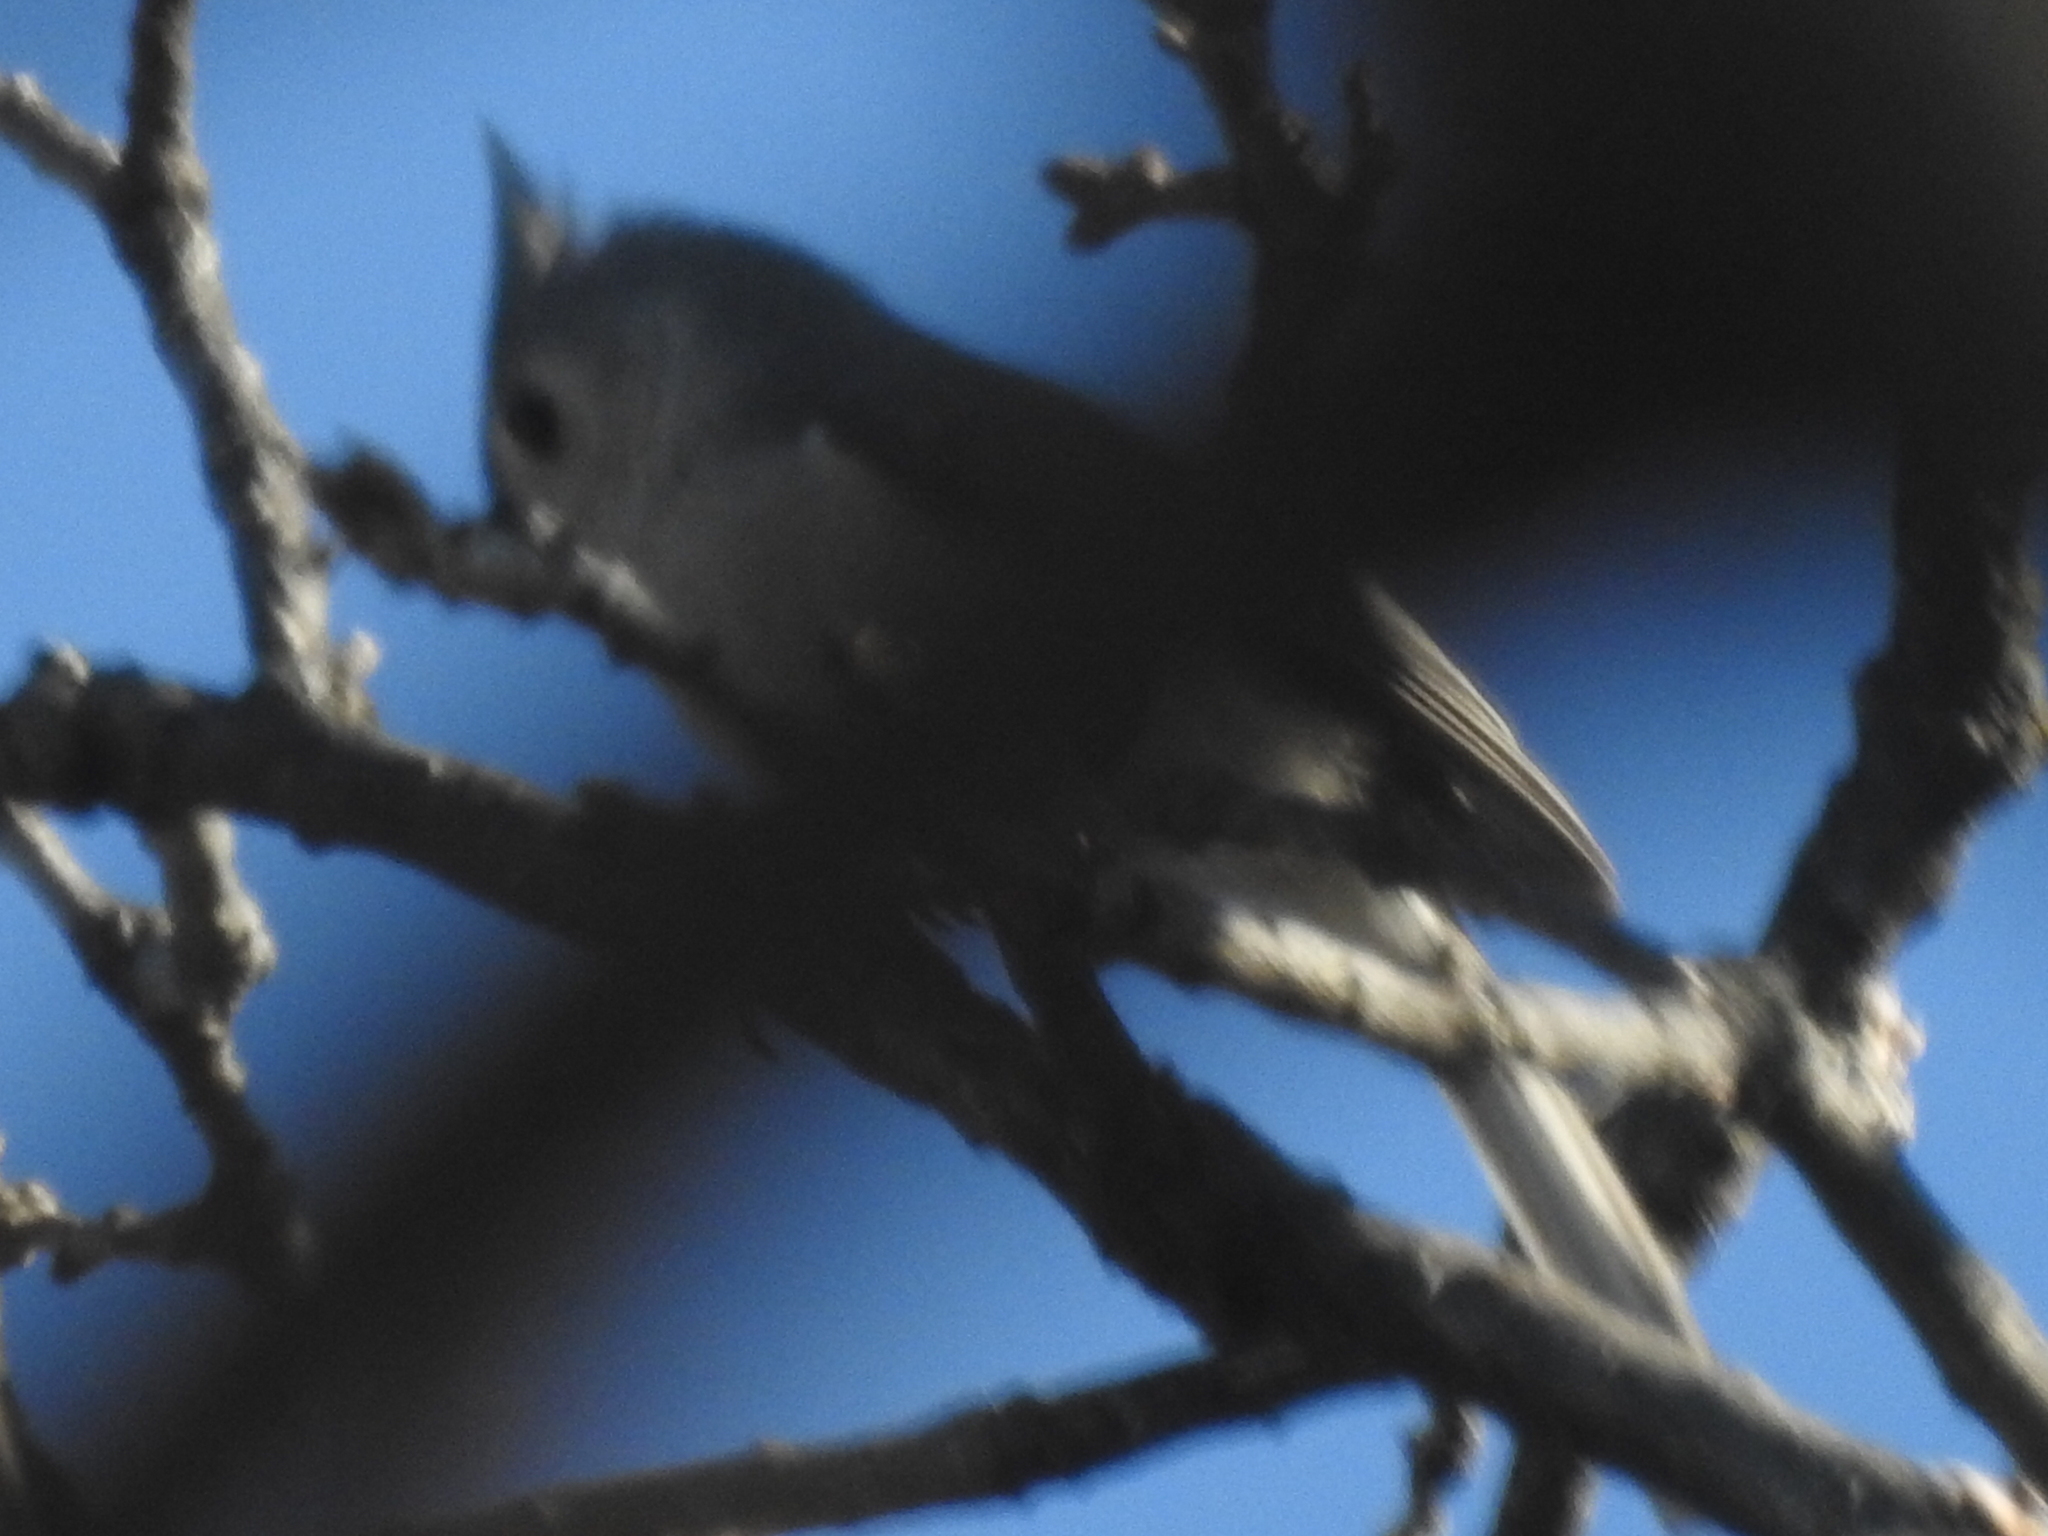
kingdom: Animalia
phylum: Chordata
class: Aves
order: Passeriformes
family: Paridae
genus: Baeolophus
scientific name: Baeolophus bicolor
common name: Tufted titmouse
